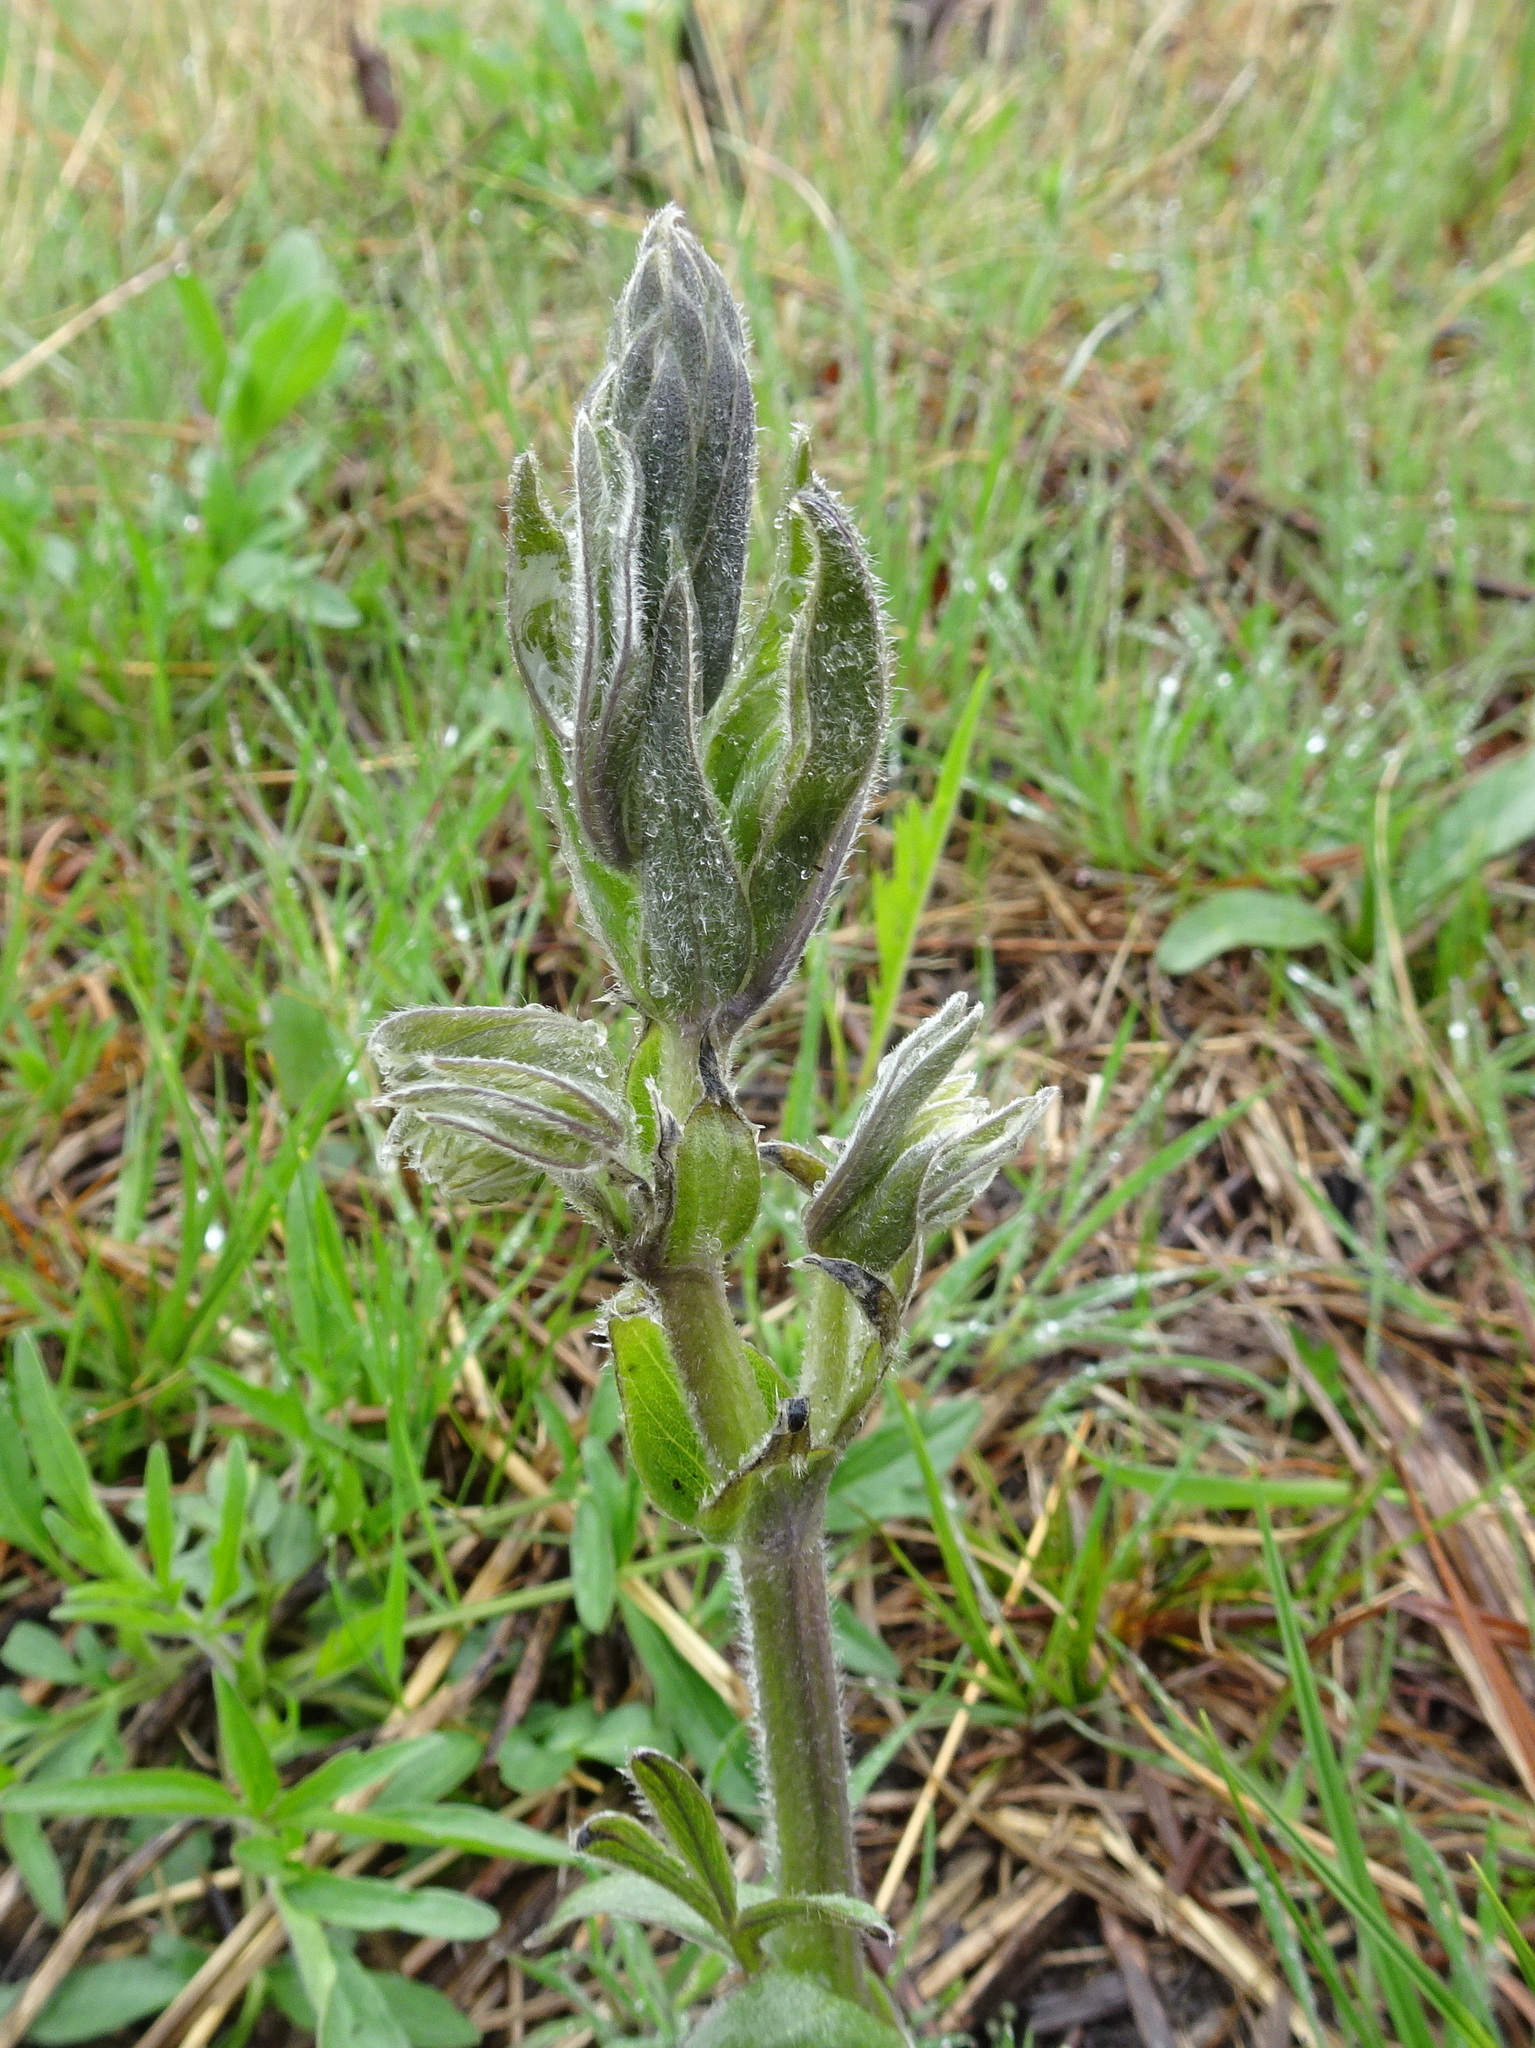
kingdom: Plantae
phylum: Tracheophyta
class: Magnoliopsida
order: Fabales
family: Fabaceae
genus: Baptisia
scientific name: Baptisia bracteata
